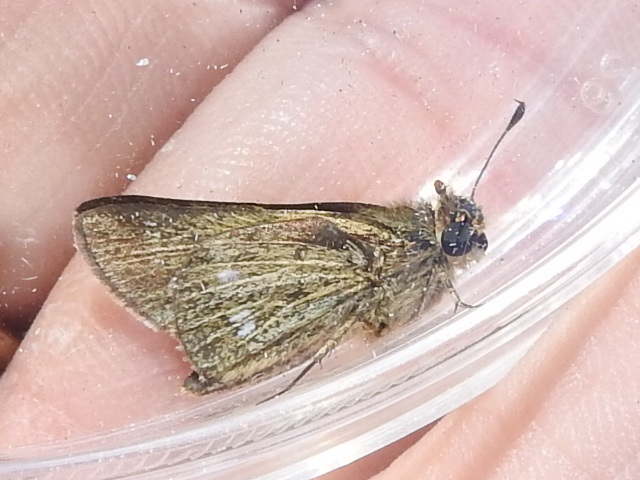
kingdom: Animalia
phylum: Arthropoda
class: Insecta
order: Lepidoptera
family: Hesperiidae
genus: Panoquina
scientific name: Panoquina panoquinoides
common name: Beach skipper
